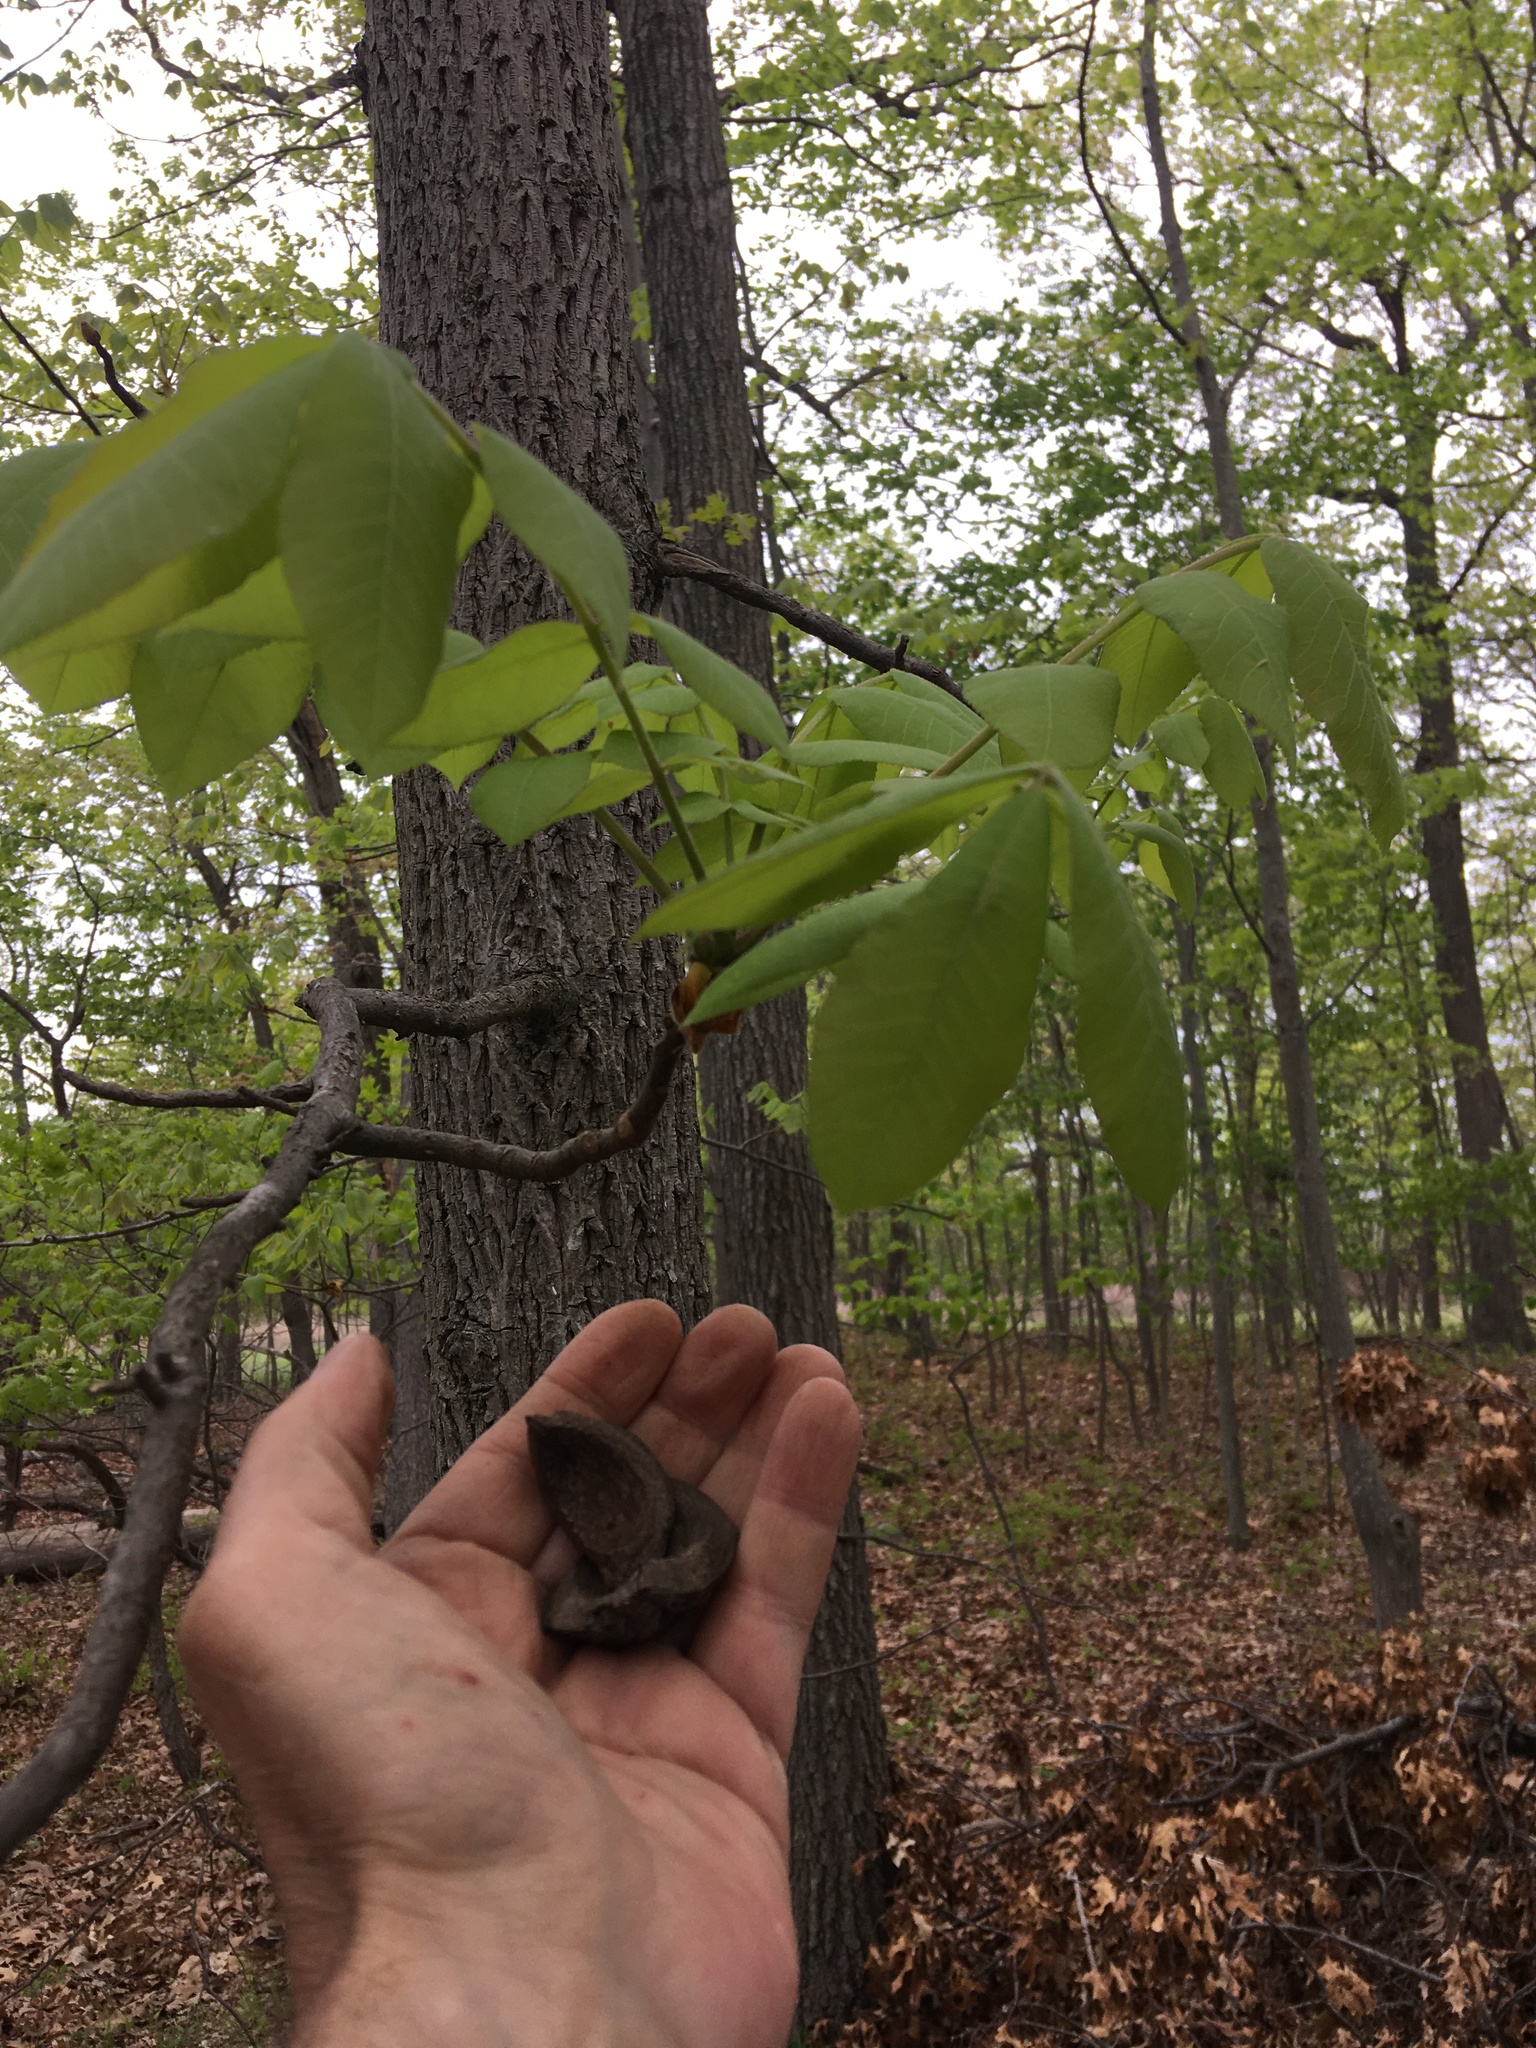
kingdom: Plantae
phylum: Tracheophyta
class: Magnoliopsida
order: Fagales
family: Juglandaceae
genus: Carya
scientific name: Carya alba
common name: Mockernut hickory
